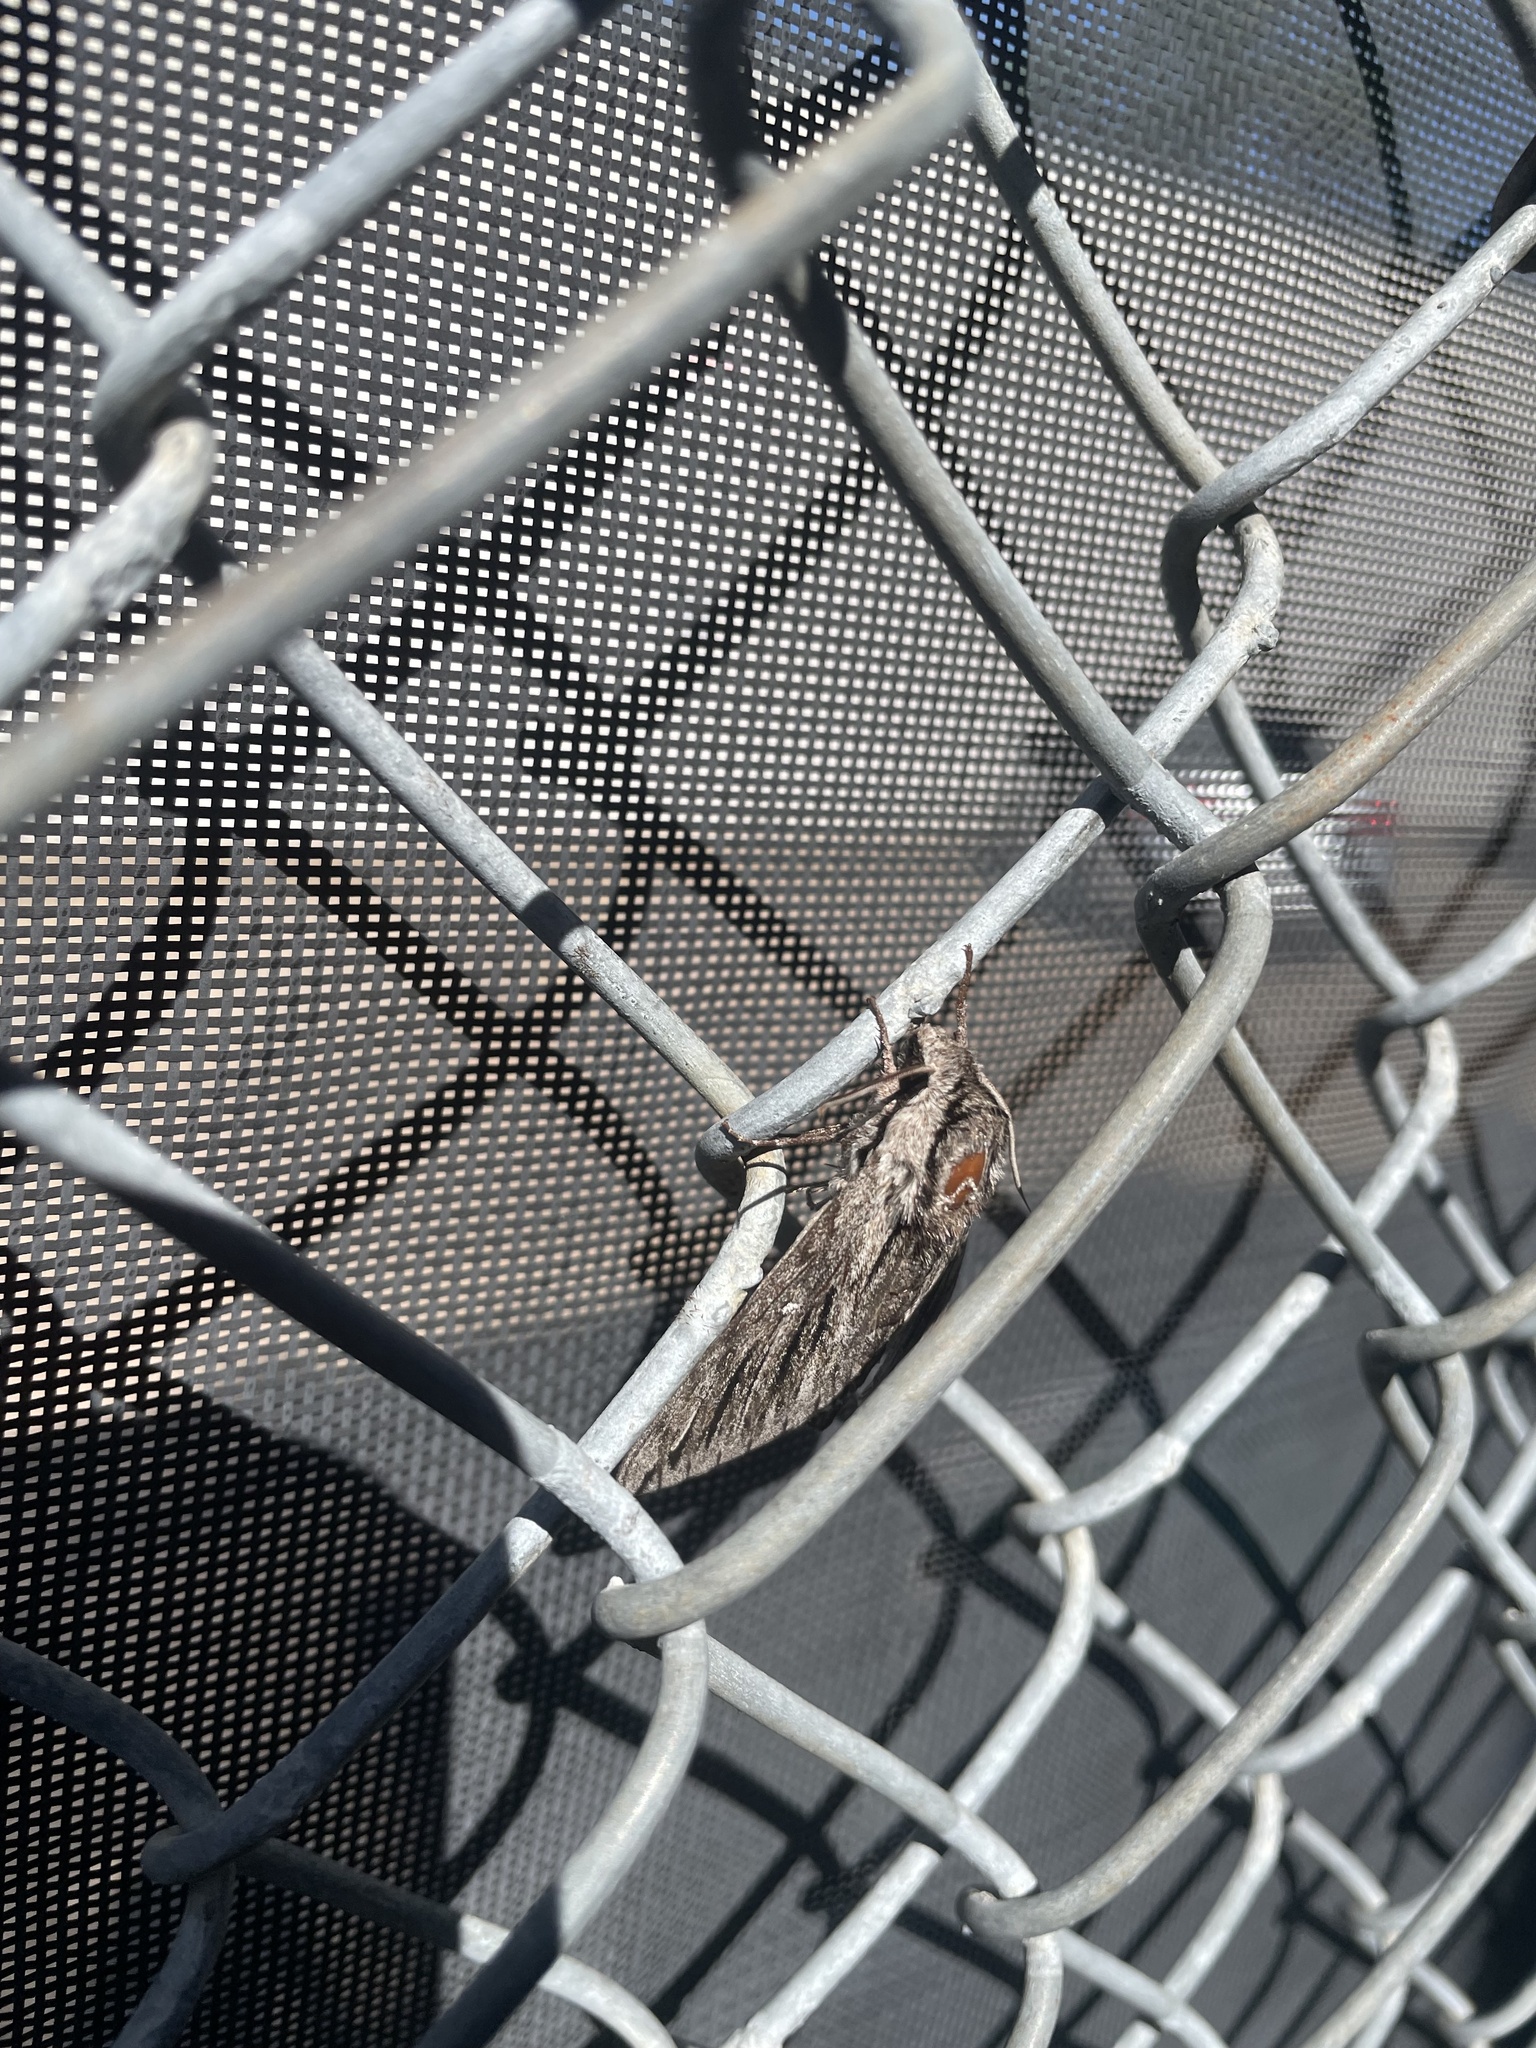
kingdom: Animalia
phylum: Arthropoda
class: Insecta
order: Lepidoptera
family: Sphingidae
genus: Paratrea
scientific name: Paratrea plebeja
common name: Plebian sphinx
